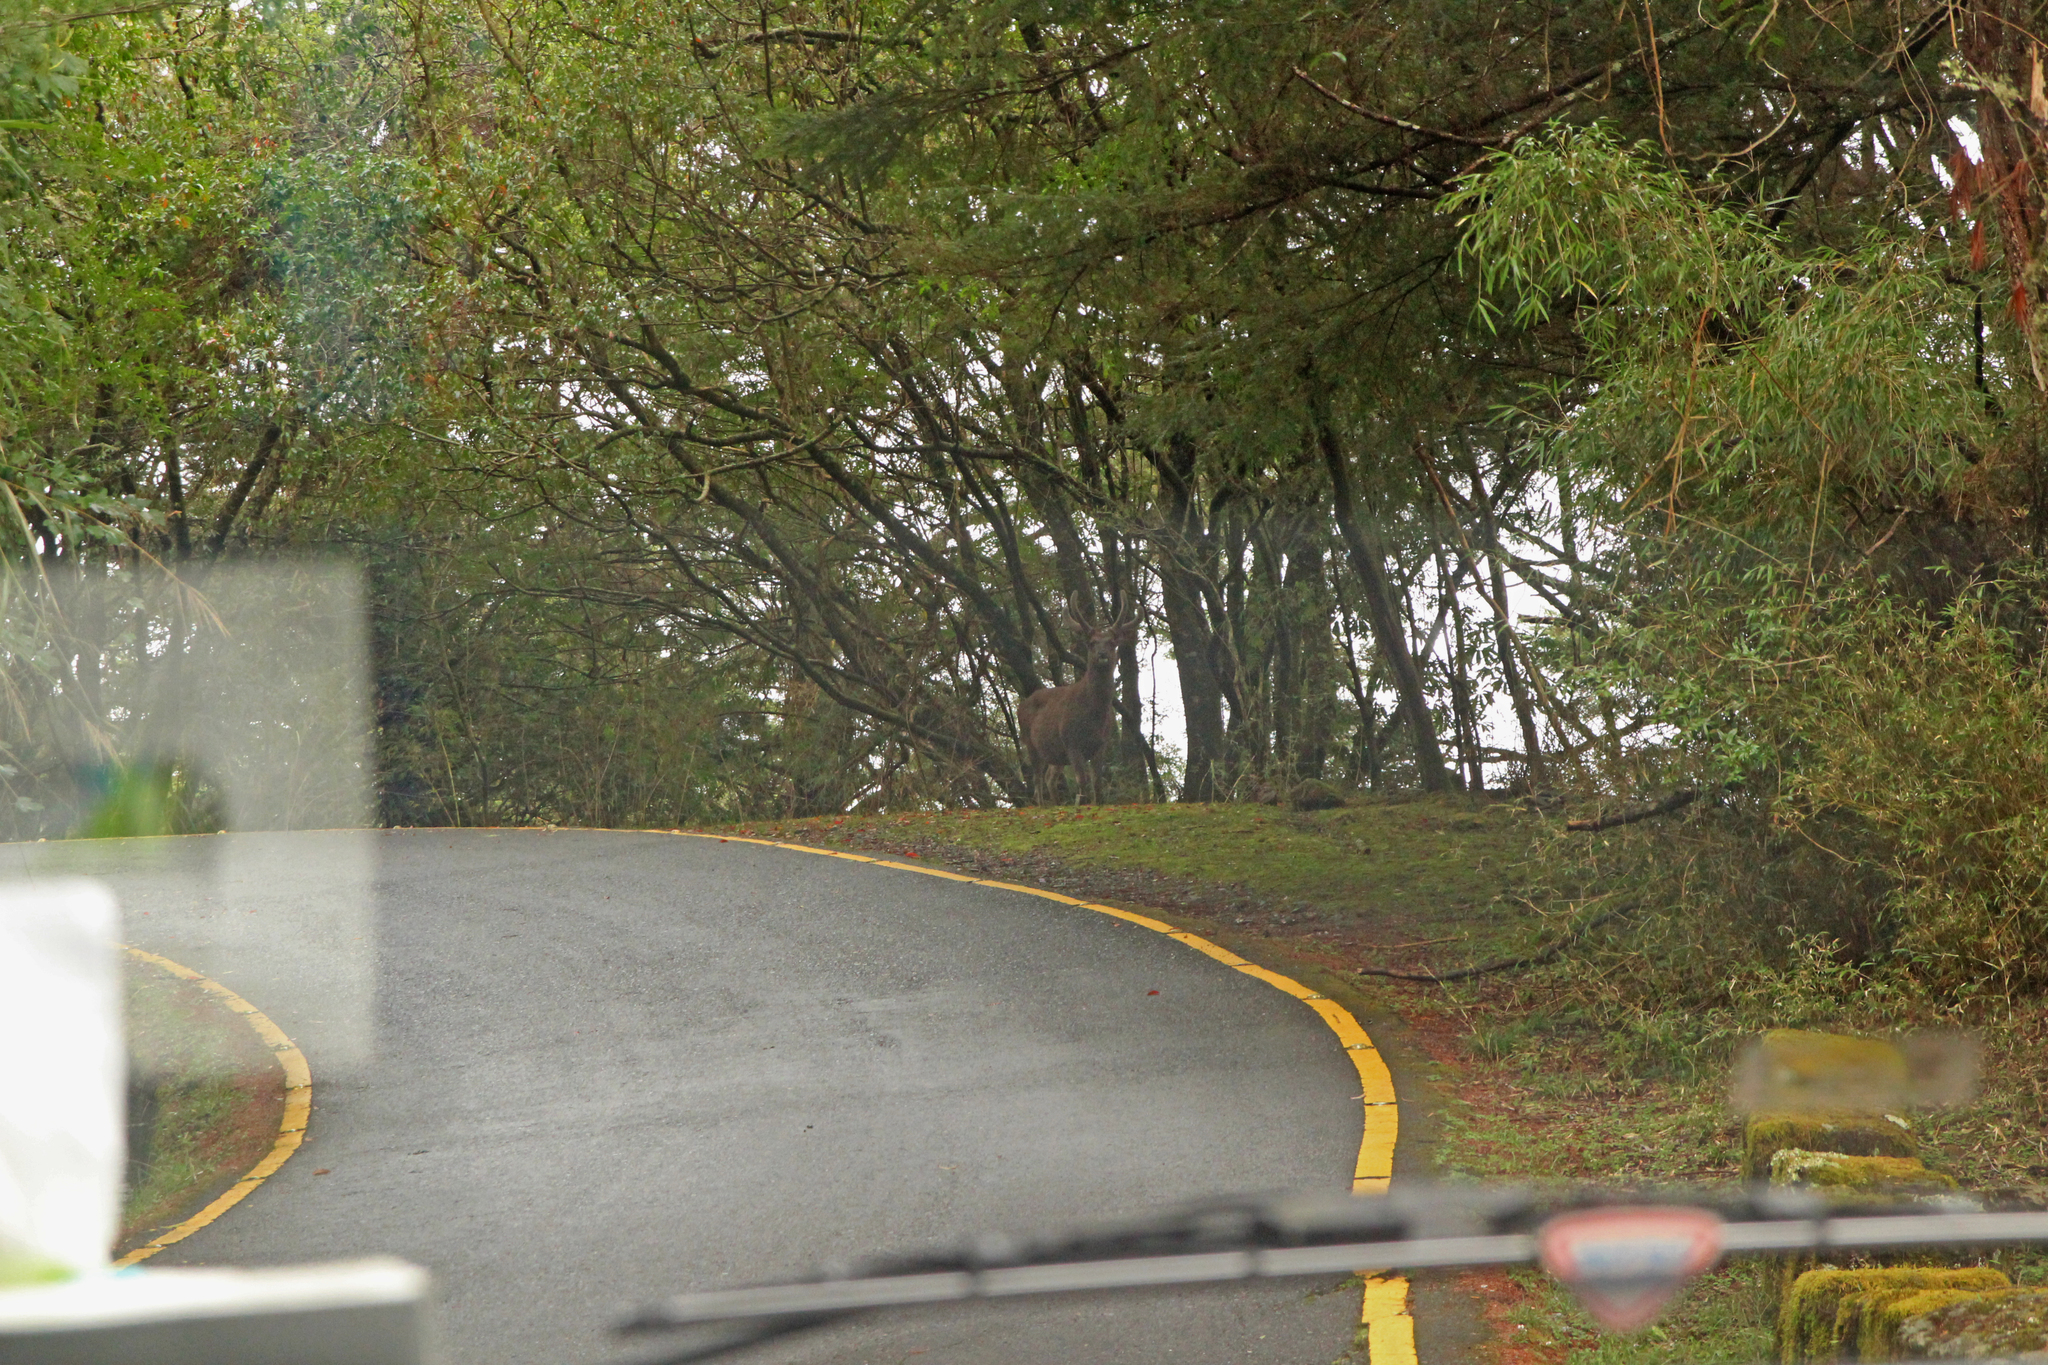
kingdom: Animalia
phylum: Chordata
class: Mammalia
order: Artiodactyla
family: Cervidae
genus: Rusa
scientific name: Rusa unicolor
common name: Sambar
